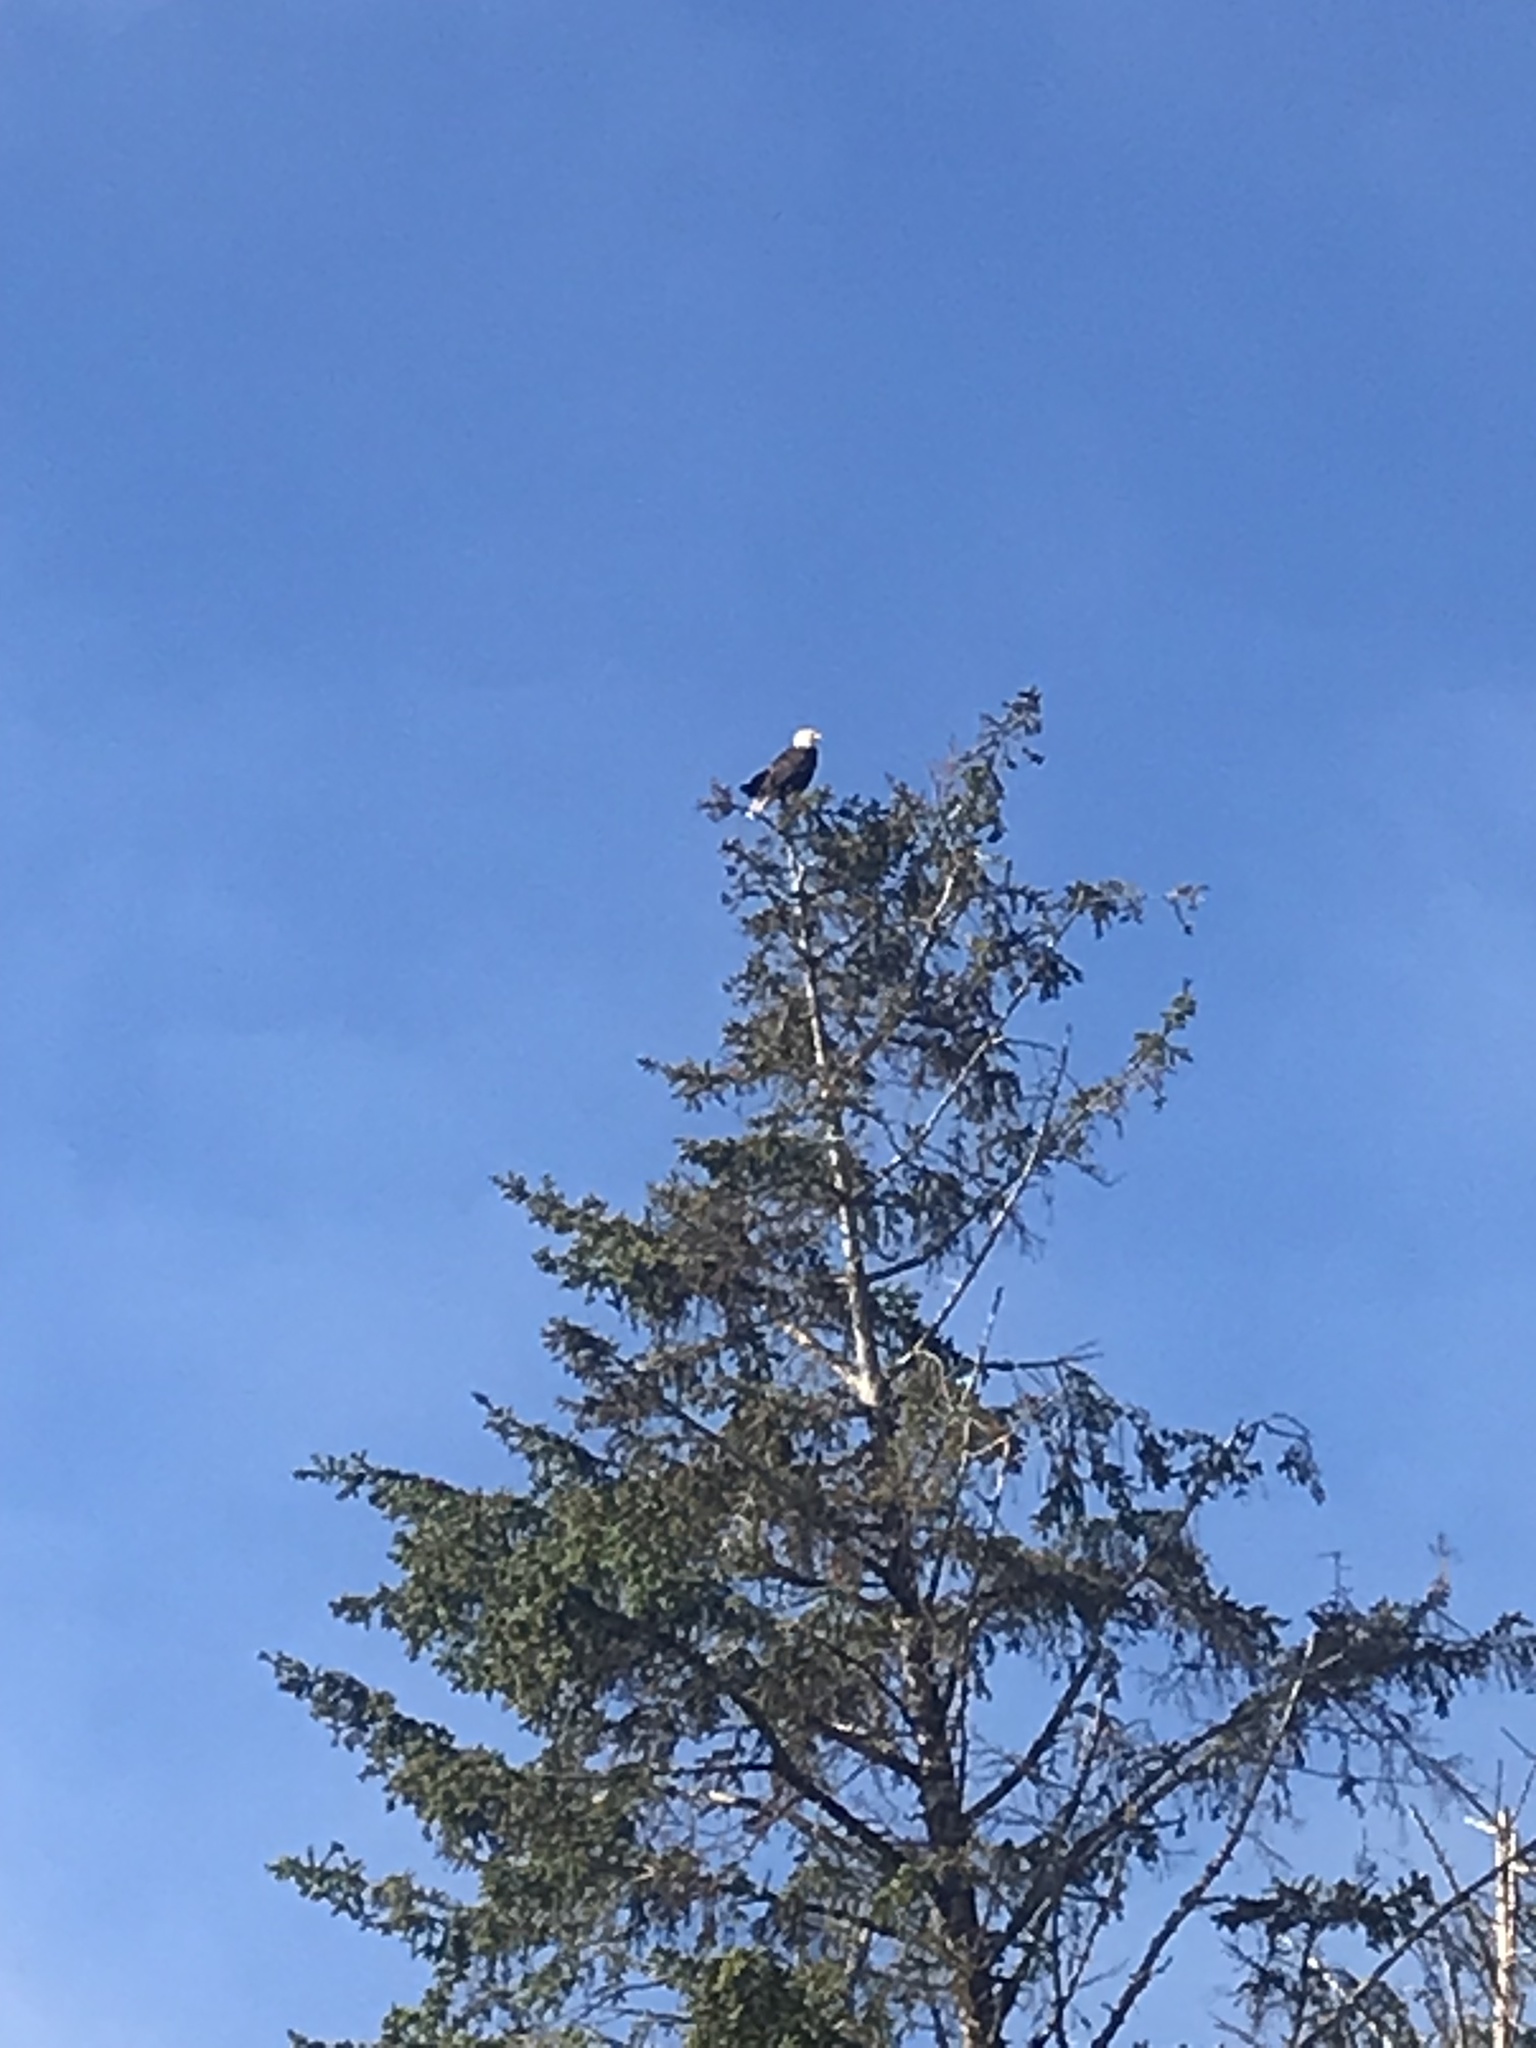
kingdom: Animalia
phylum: Chordata
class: Aves
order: Accipitriformes
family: Accipitridae
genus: Haliaeetus
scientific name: Haliaeetus leucocephalus
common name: Bald eagle
